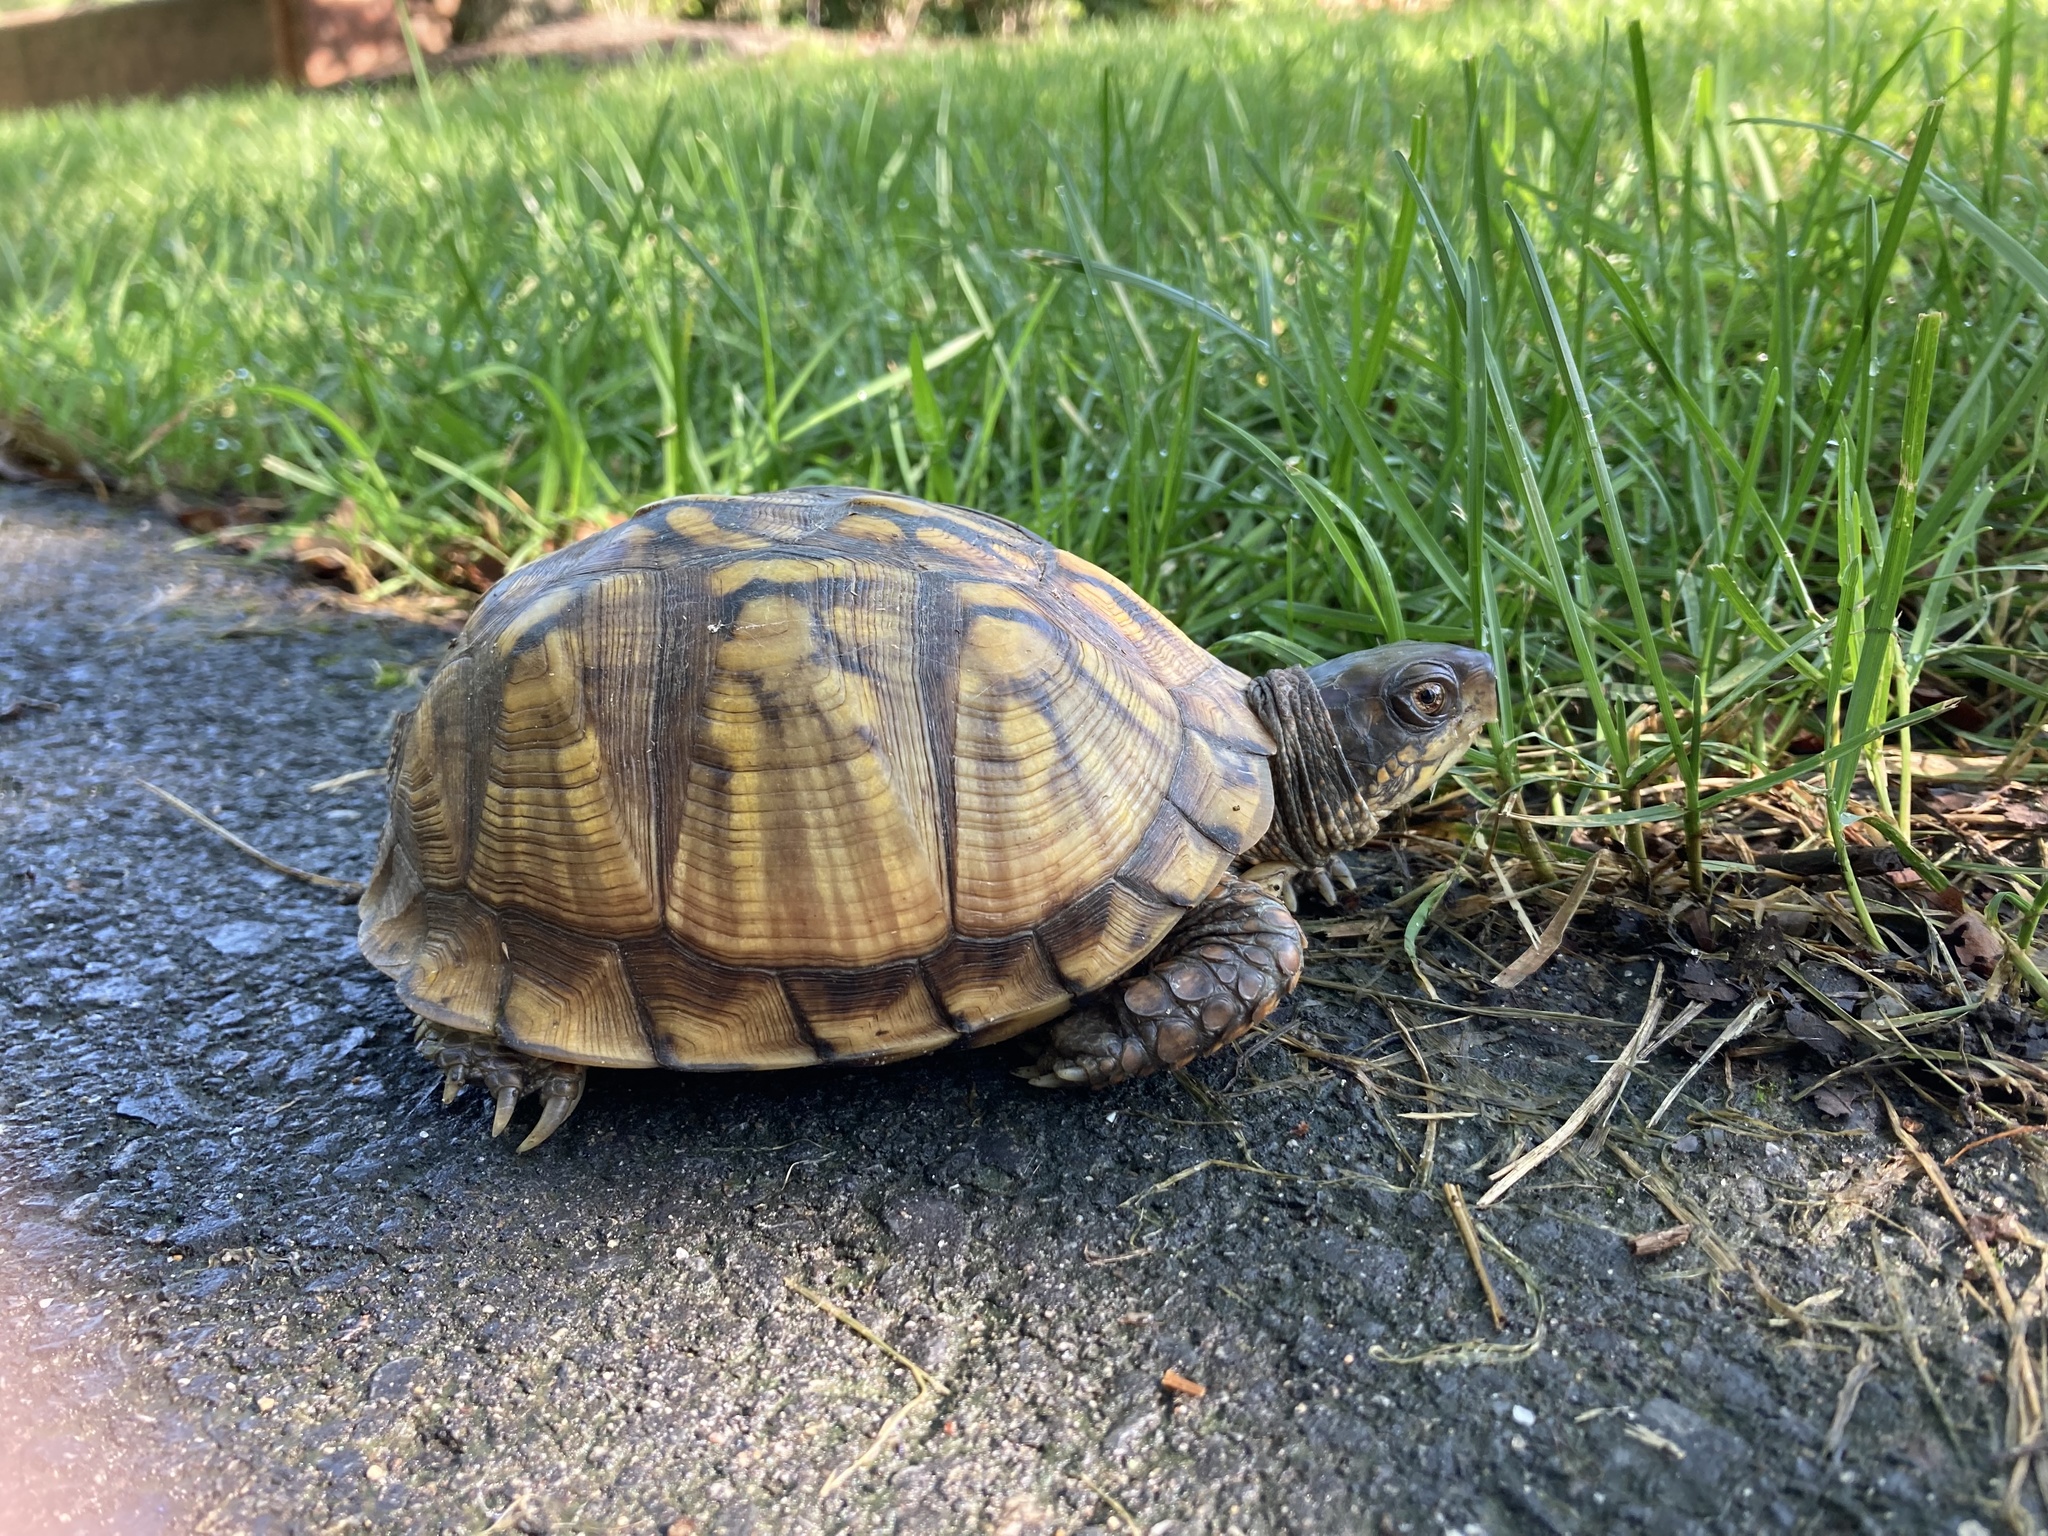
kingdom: Animalia
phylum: Chordata
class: Testudines
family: Emydidae
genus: Terrapene
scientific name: Terrapene carolina
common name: Common box turtle
